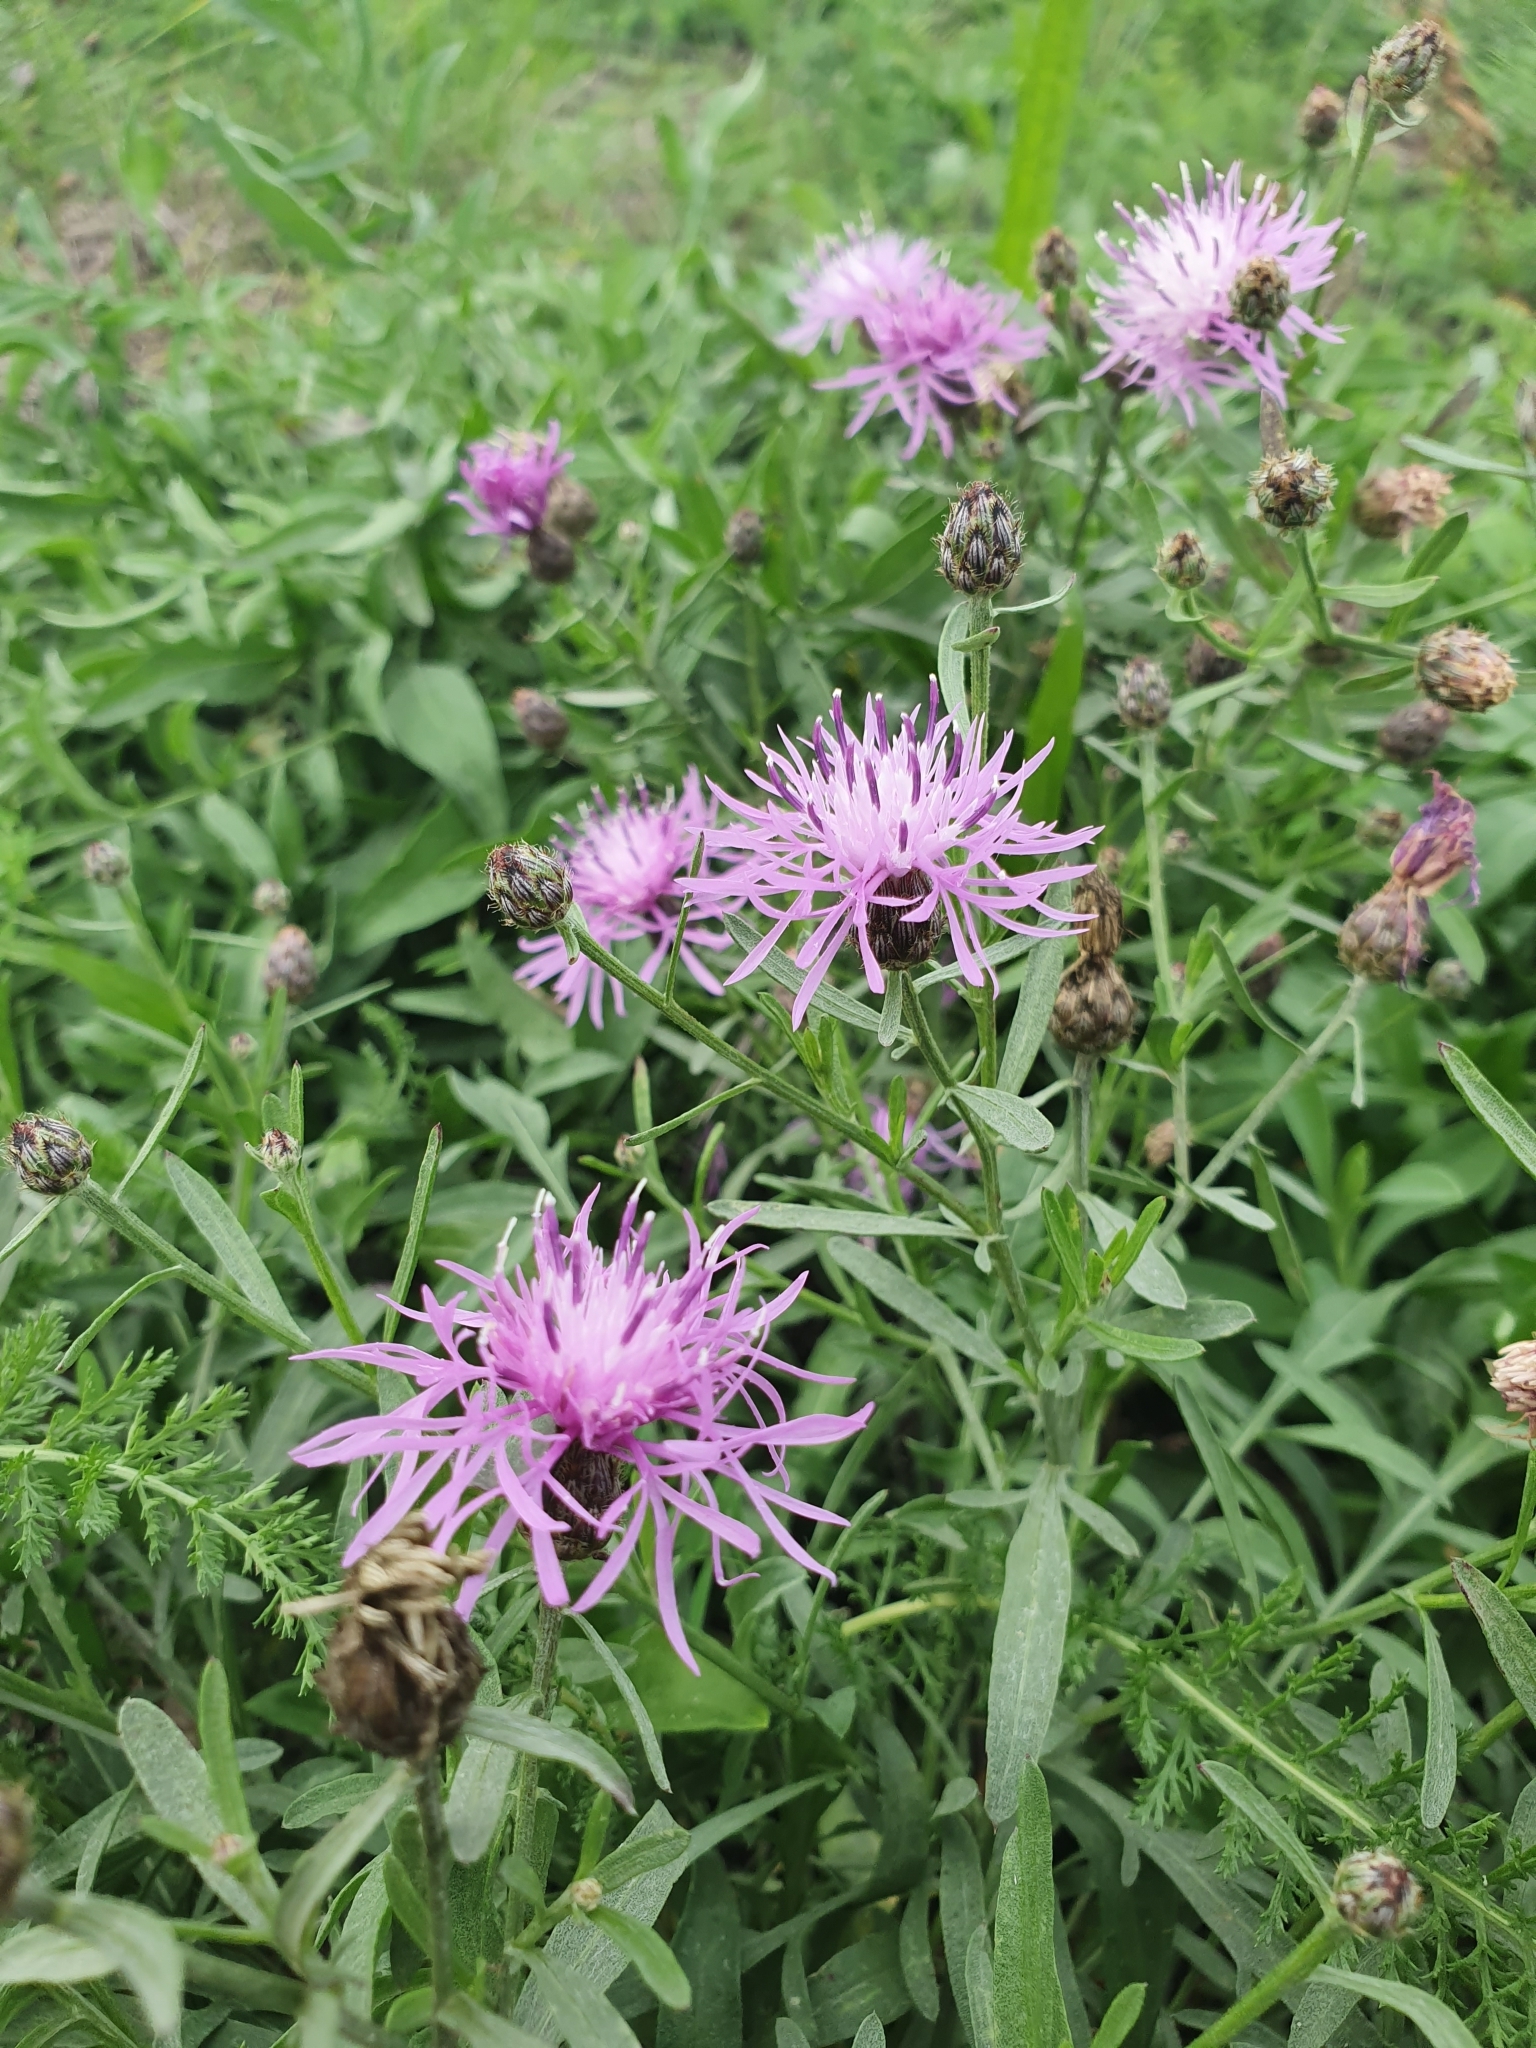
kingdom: Plantae
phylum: Tracheophyta
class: Magnoliopsida
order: Asterales
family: Asteraceae
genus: Centaurea
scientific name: Centaurea stoebe
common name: Spotted knapweed
